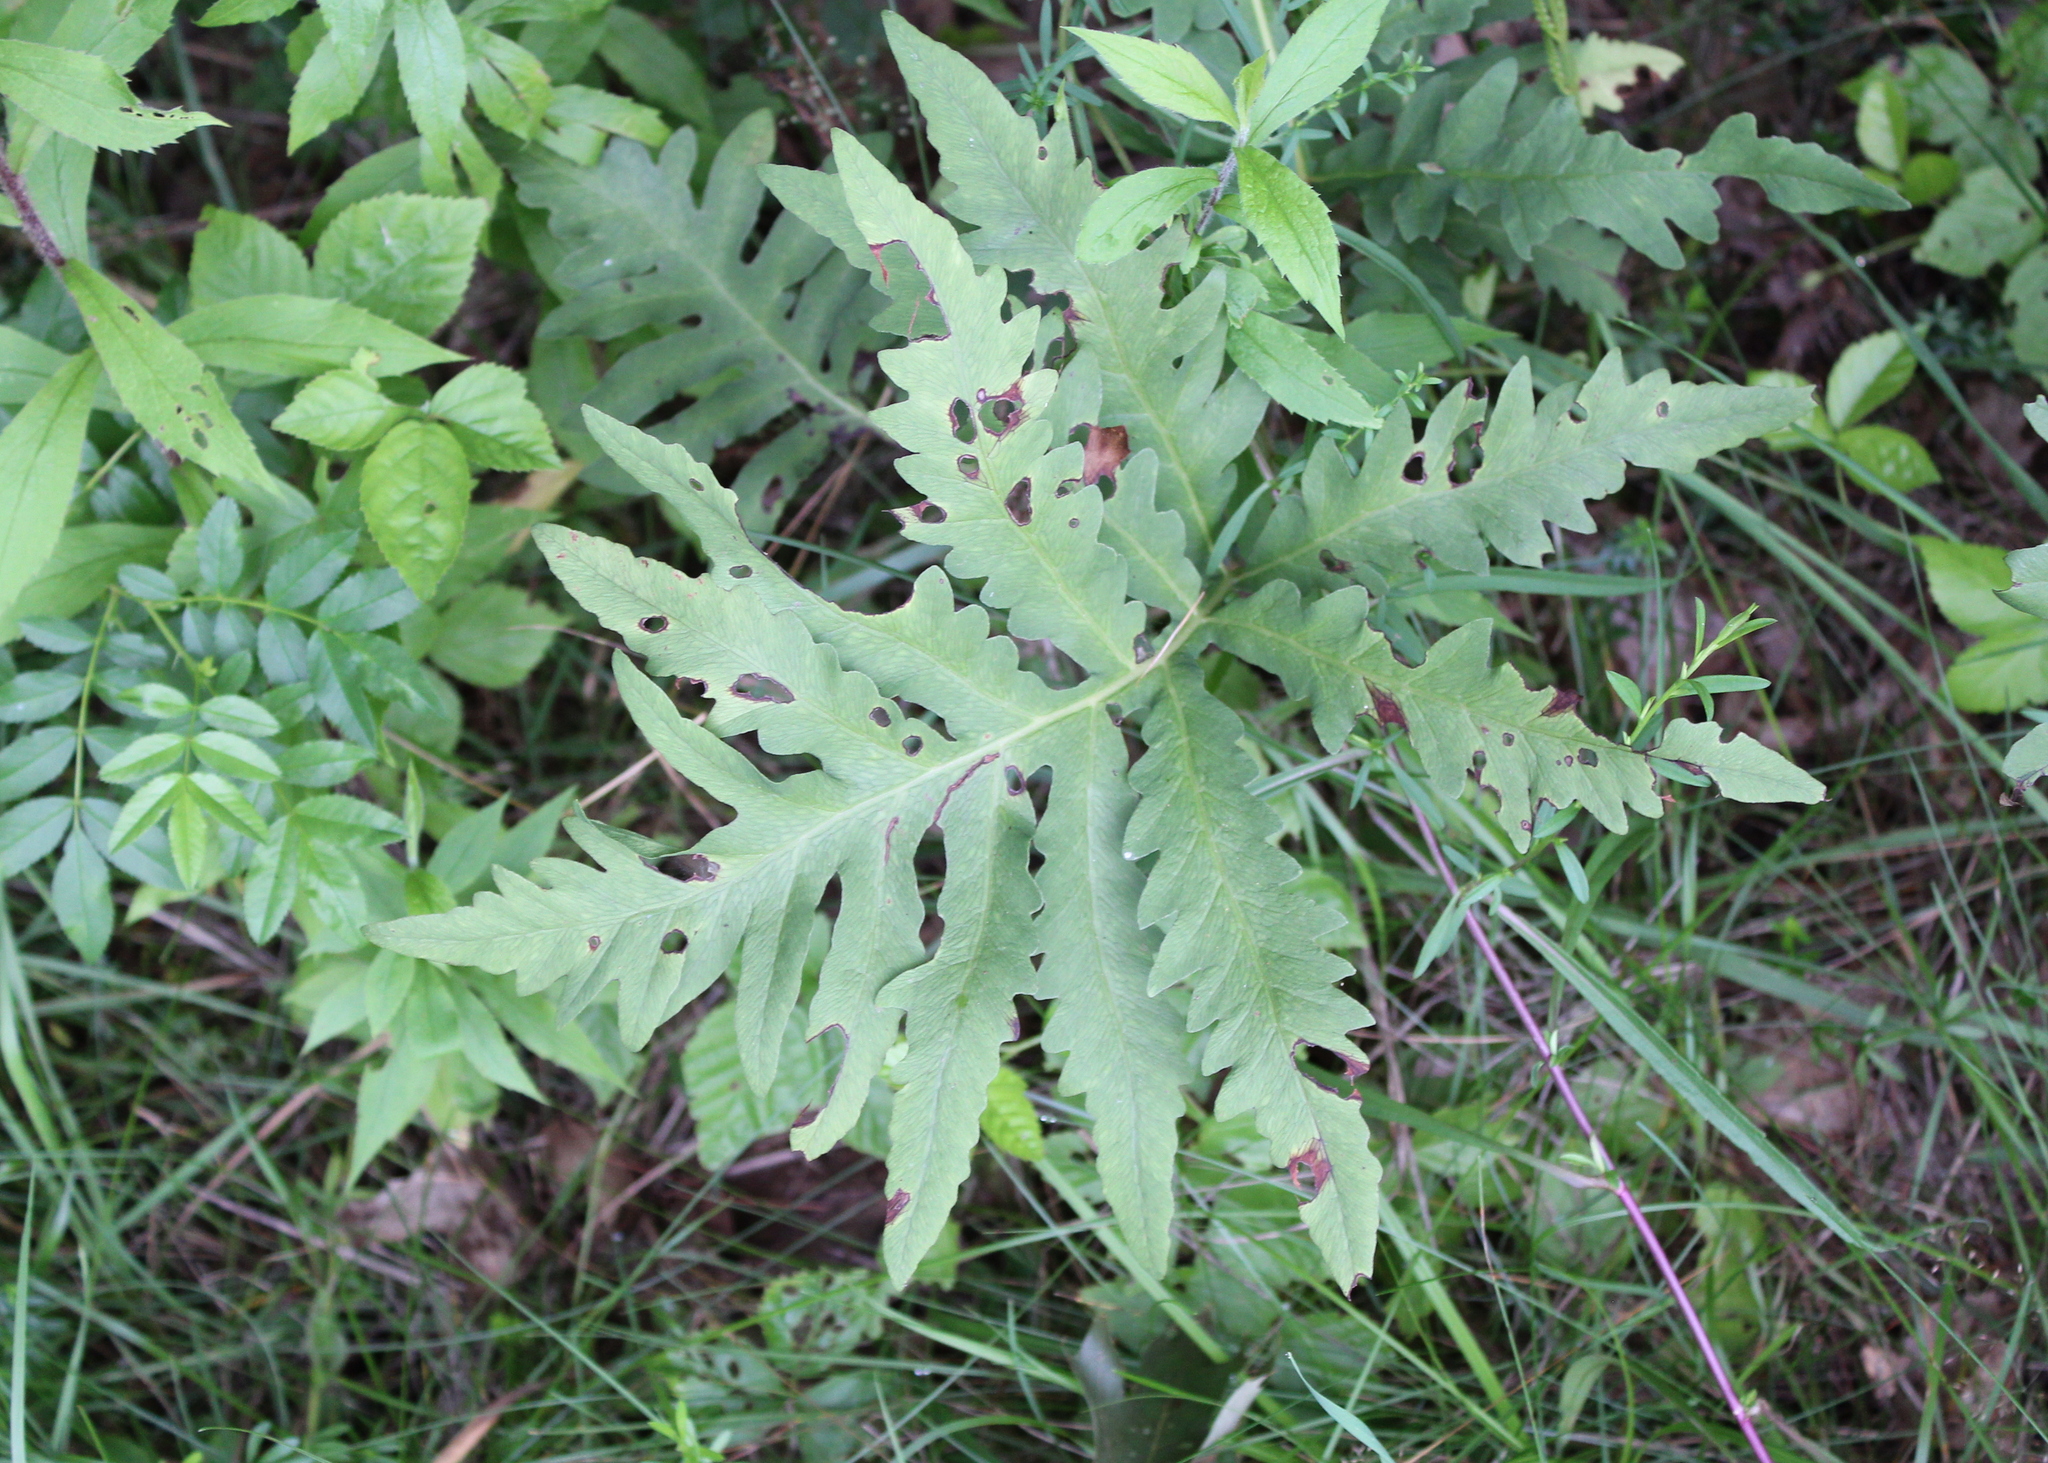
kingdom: Plantae
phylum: Tracheophyta
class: Polypodiopsida
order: Polypodiales
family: Onocleaceae
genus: Onoclea
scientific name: Onoclea sensibilis
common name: Sensitive fern
